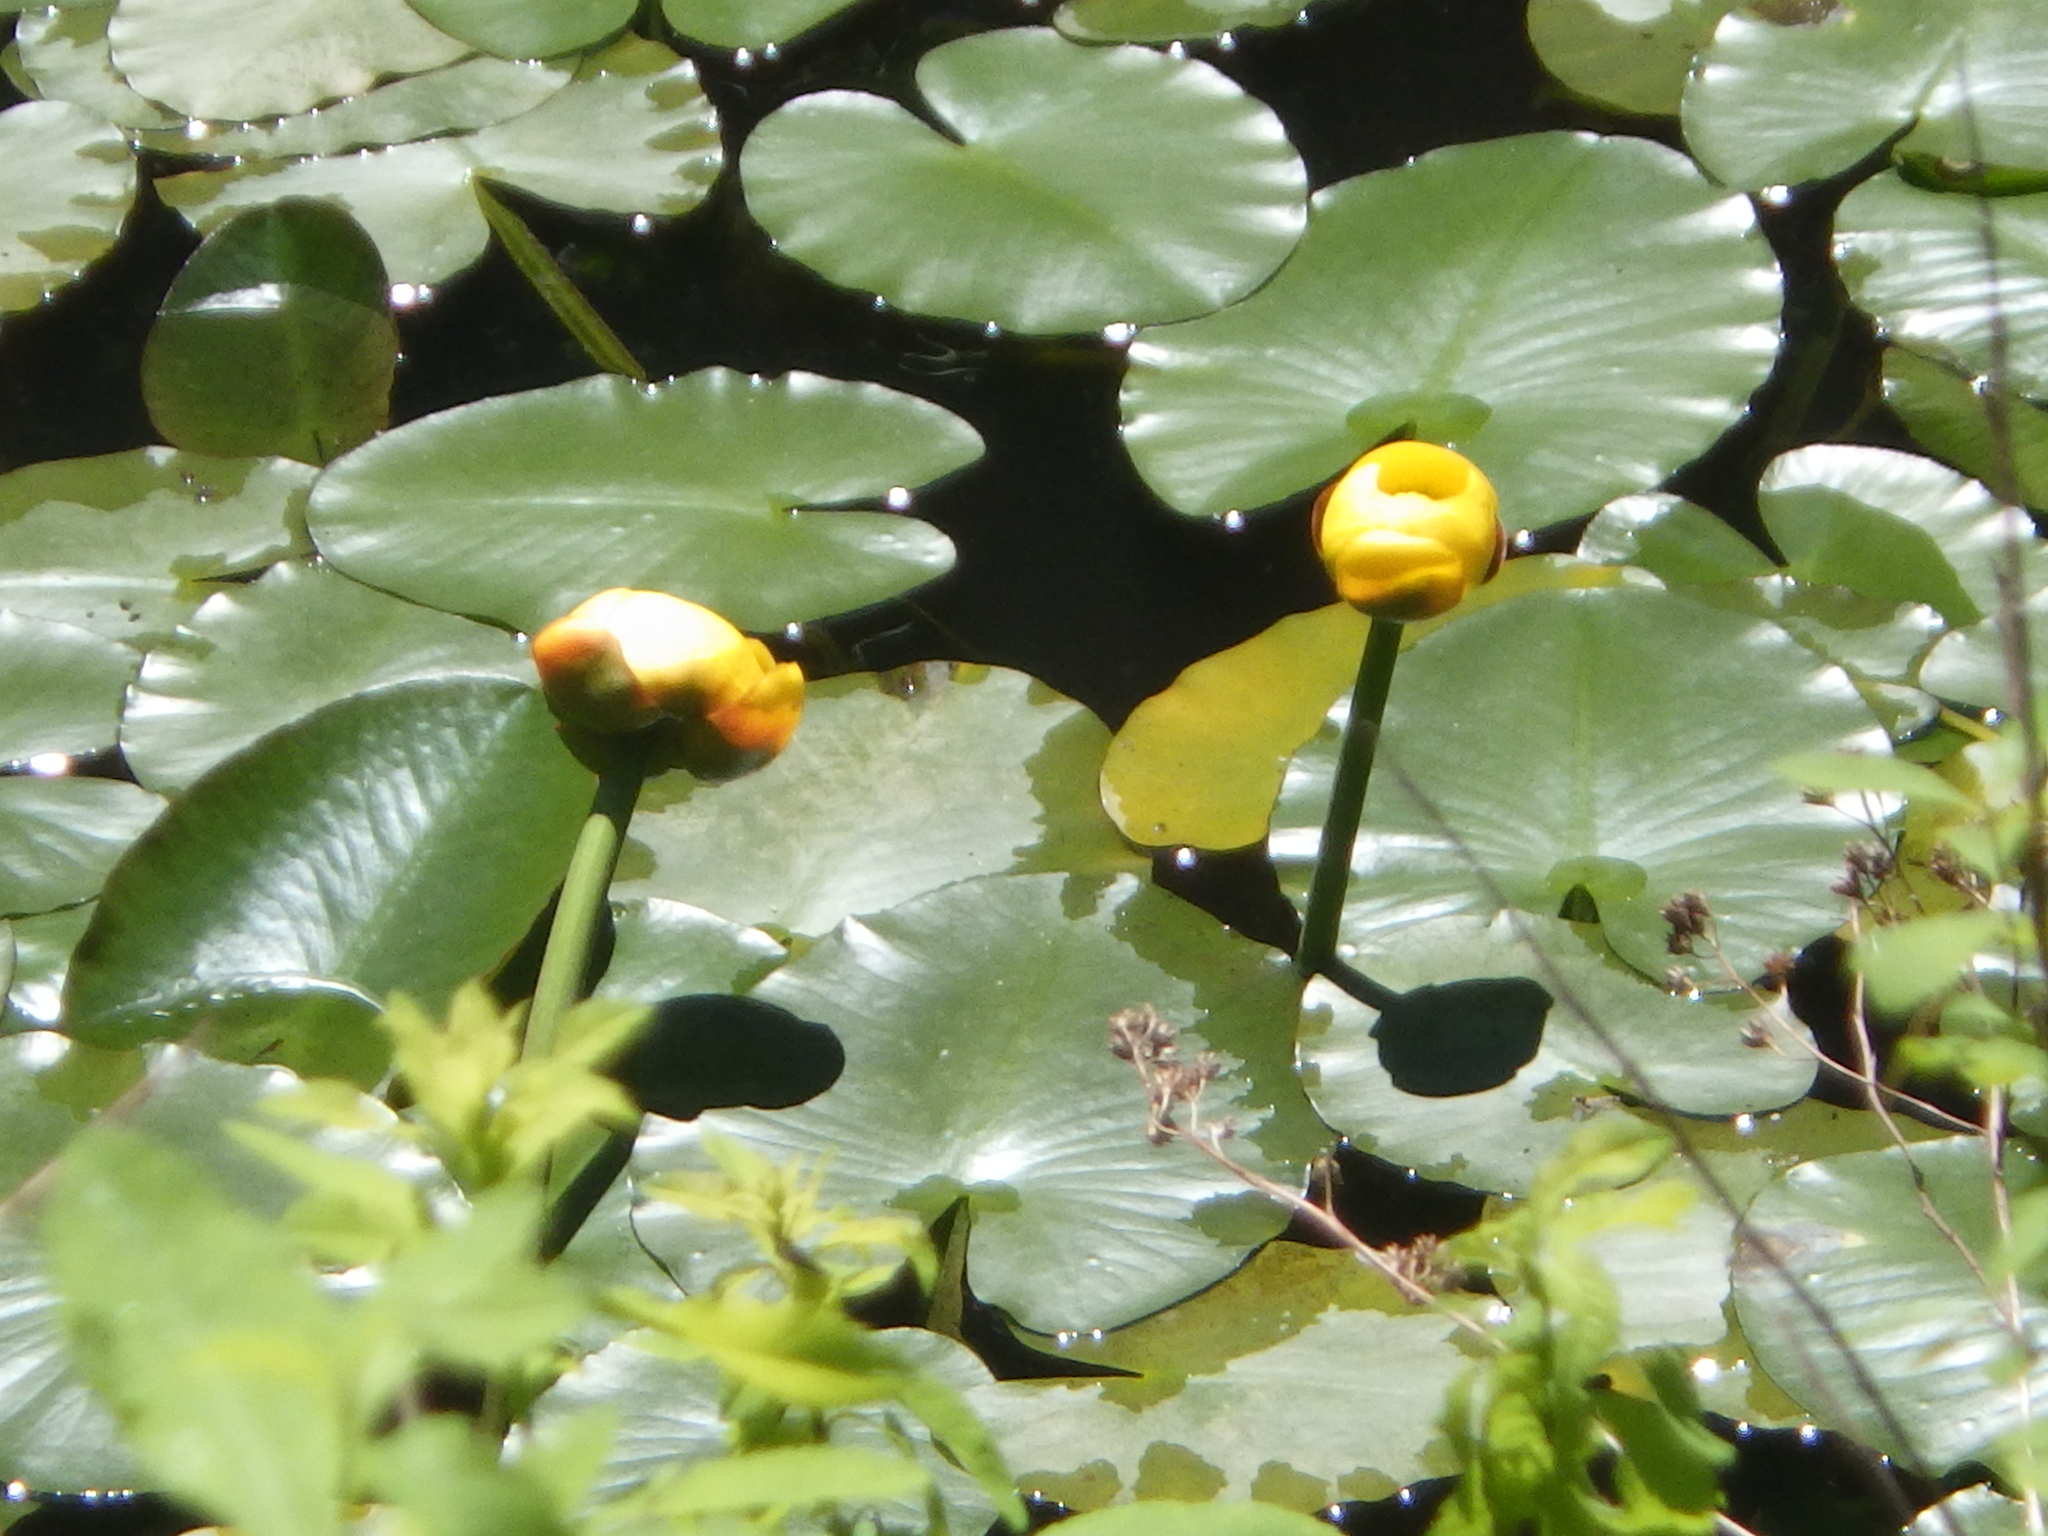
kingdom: Plantae
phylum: Tracheophyta
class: Magnoliopsida
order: Nymphaeales
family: Nymphaeaceae
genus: Nuphar
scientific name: Nuphar variegata
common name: Beaver-root
